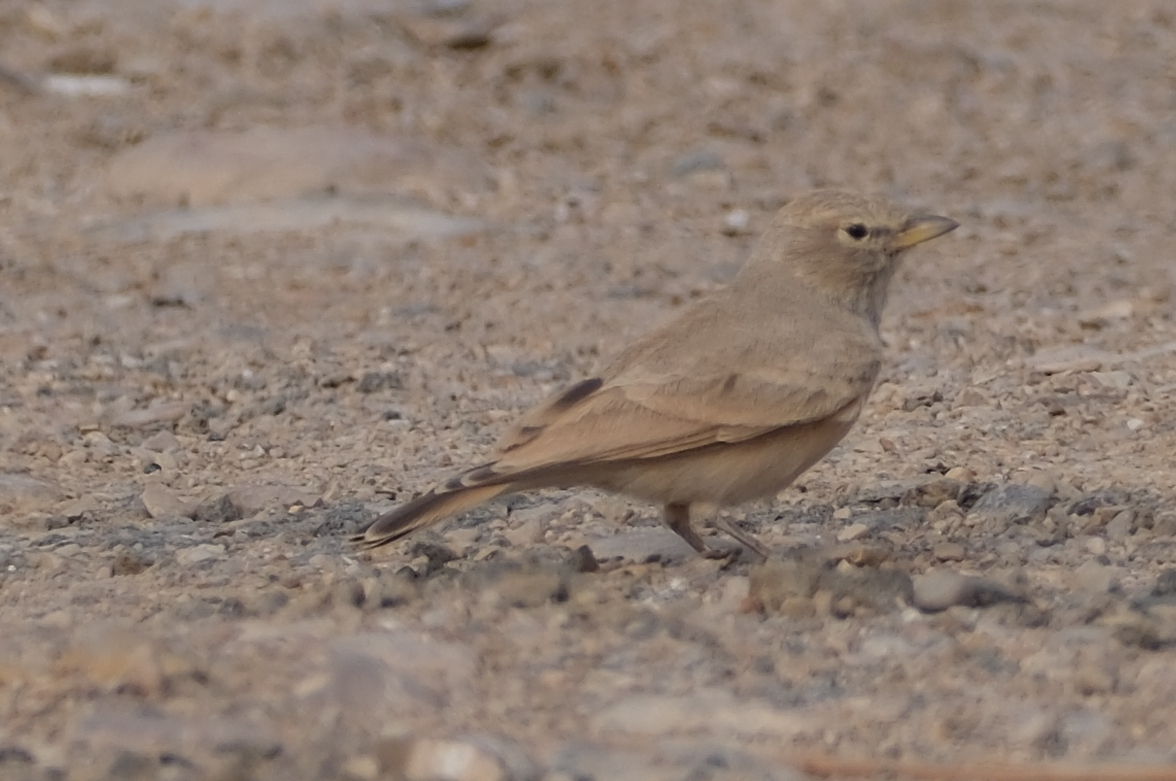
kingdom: Animalia
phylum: Chordata
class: Aves
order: Passeriformes
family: Alaudidae
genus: Ammomanes
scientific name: Ammomanes deserti
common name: Desert lark
